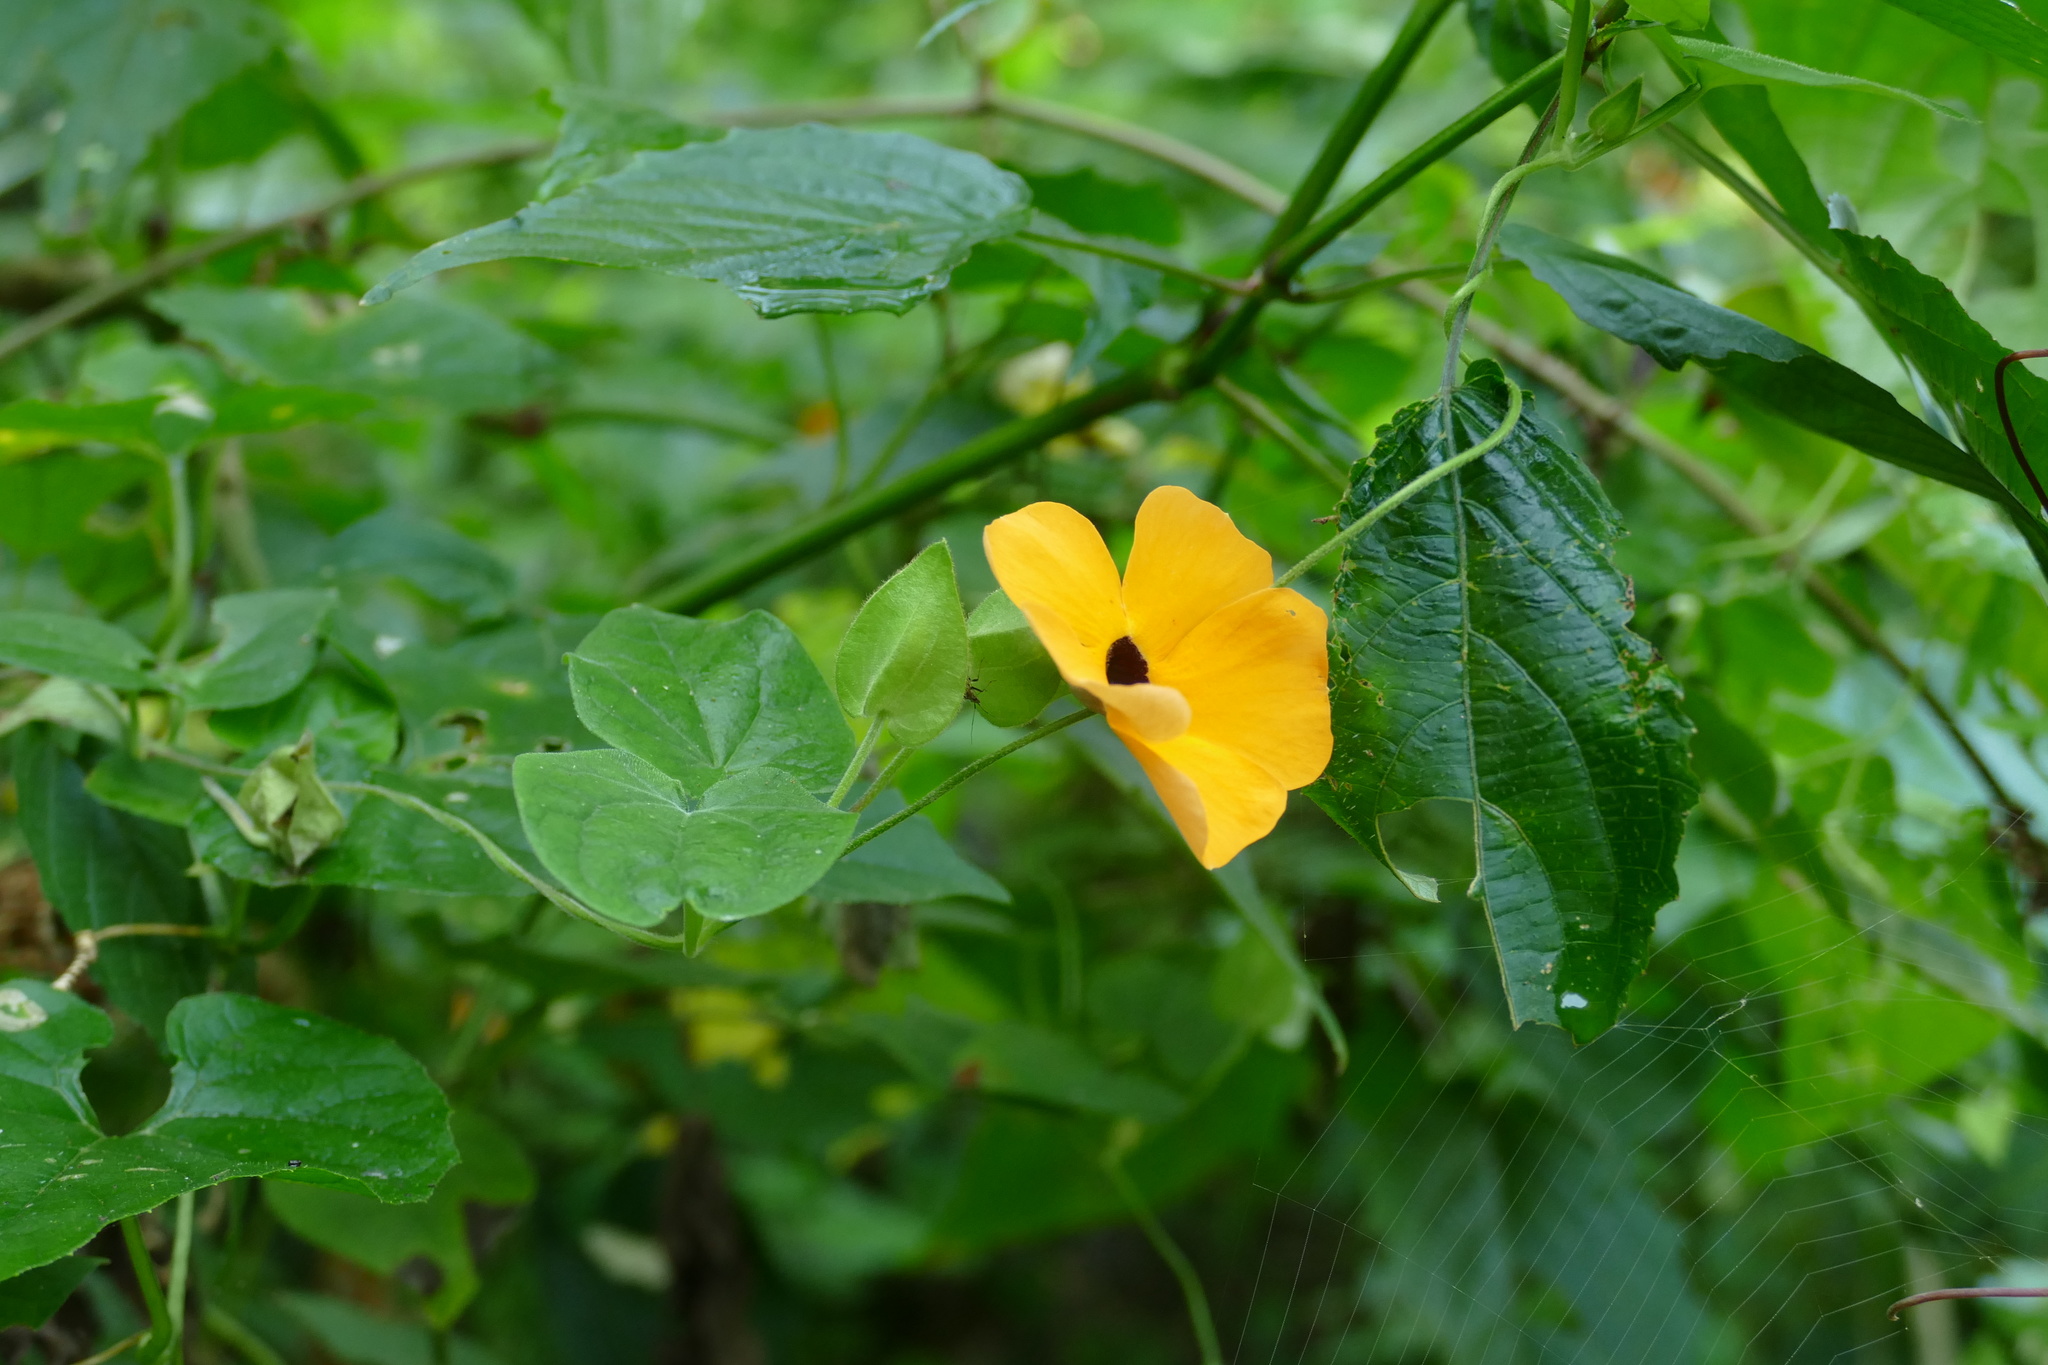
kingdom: Plantae
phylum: Tracheophyta
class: Magnoliopsida
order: Lamiales
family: Acanthaceae
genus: Thunbergia
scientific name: Thunbergia alata
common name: Blackeyed susan vine
